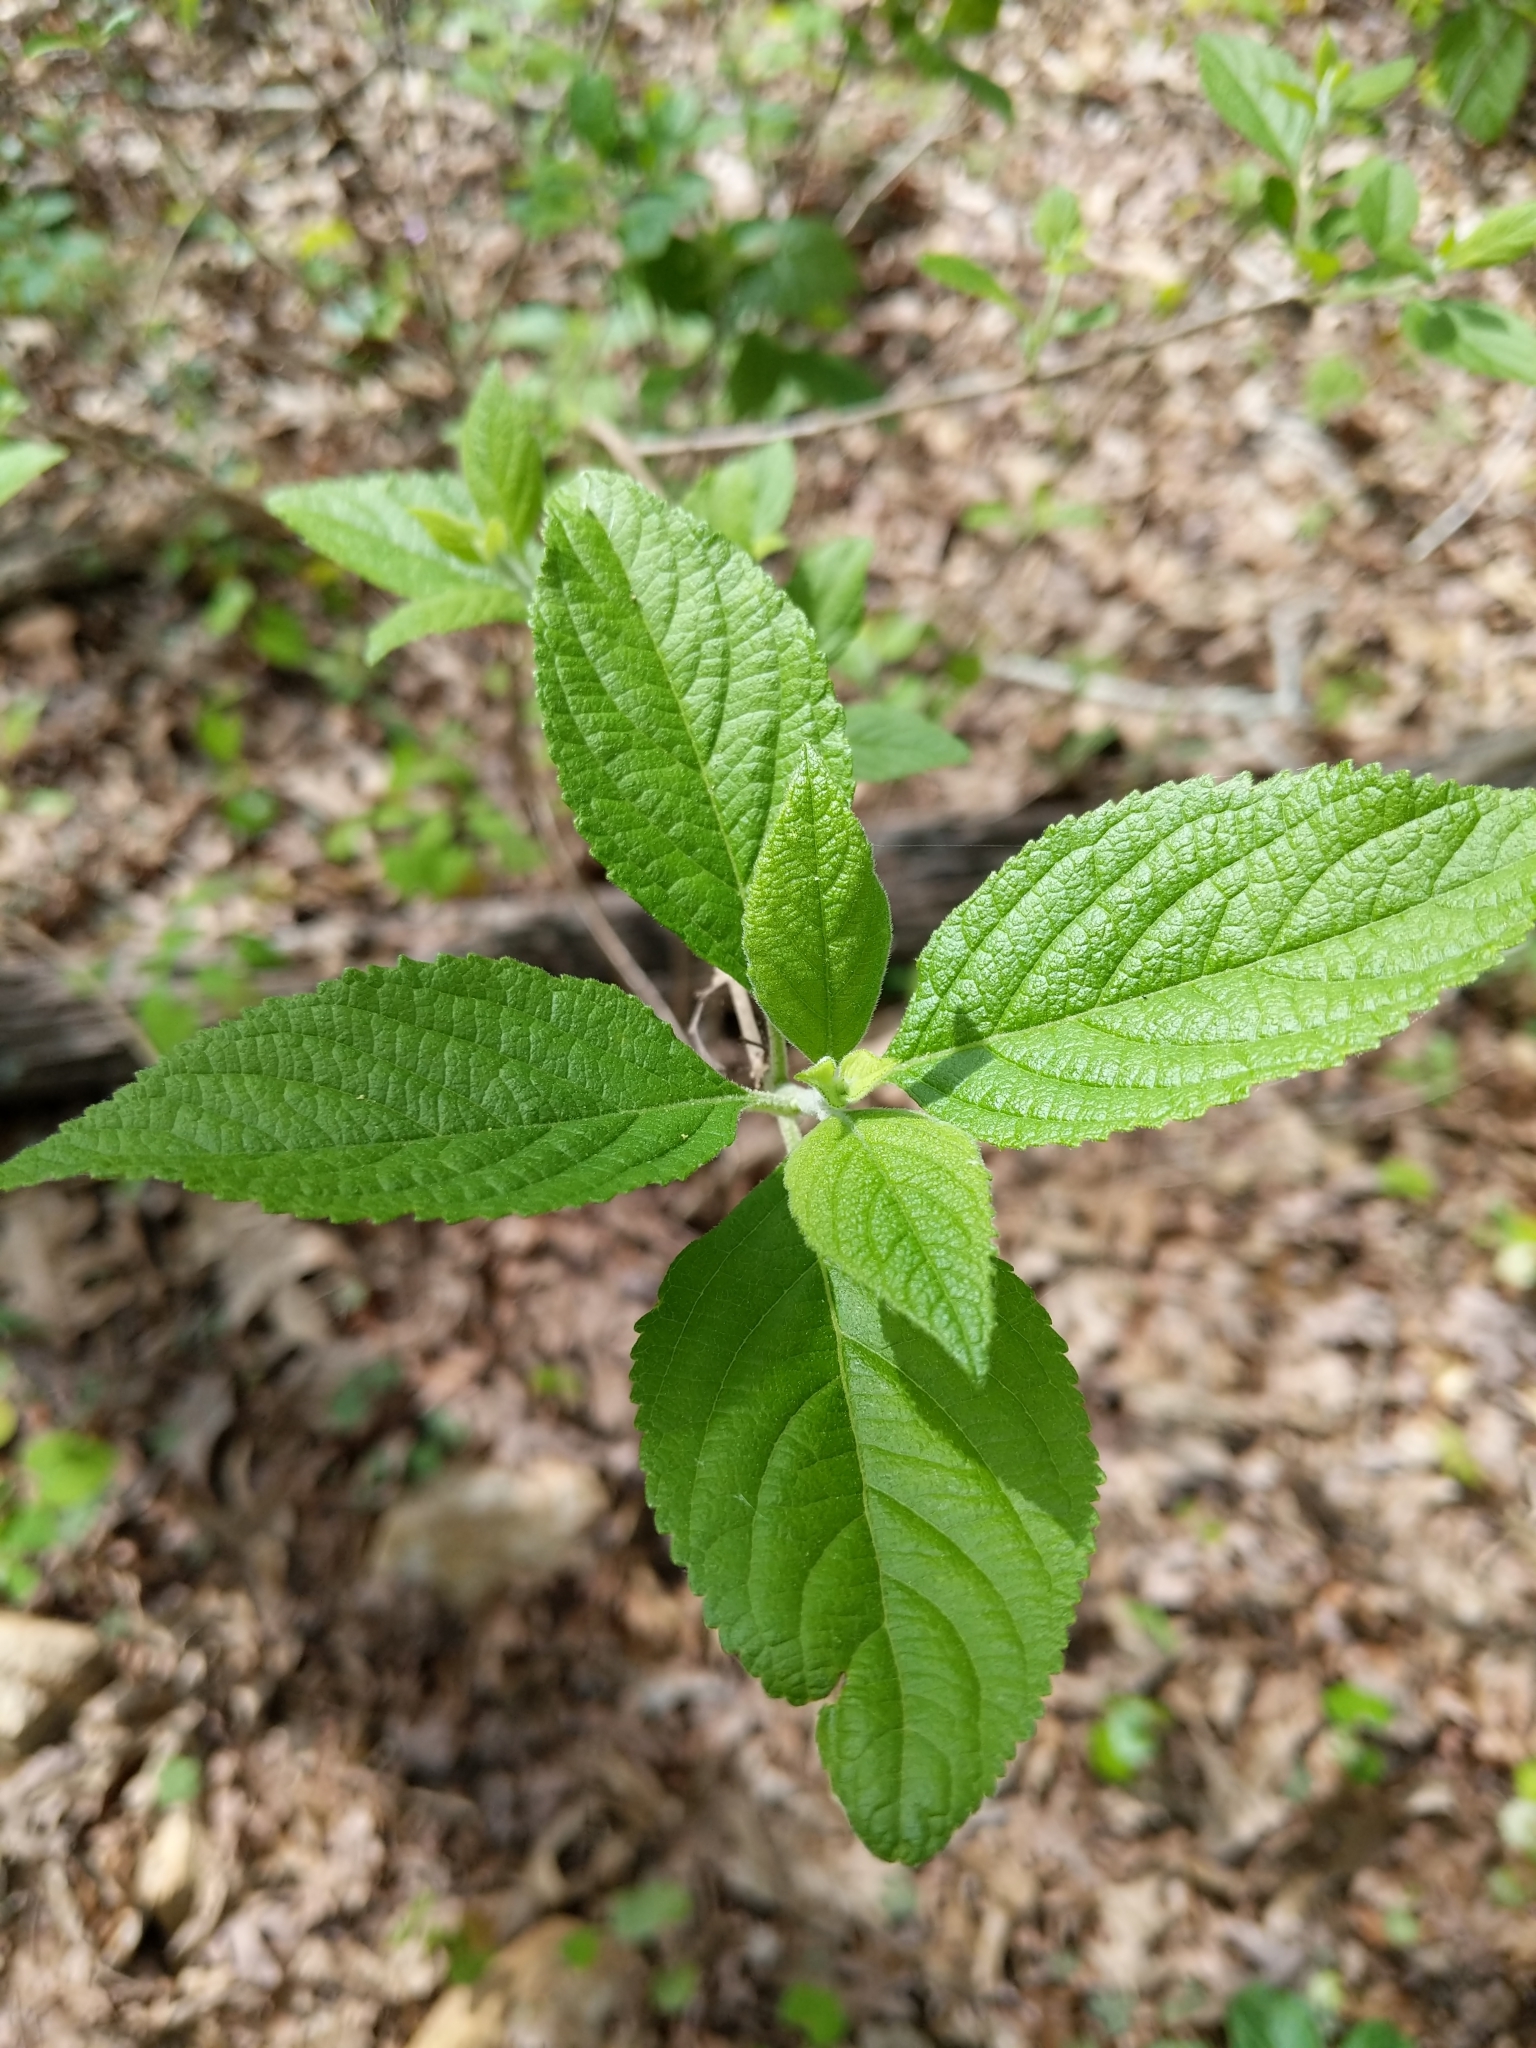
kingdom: Plantae
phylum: Tracheophyta
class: Magnoliopsida
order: Lamiales
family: Lamiaceae
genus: Callicarpa
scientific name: Callicarpa americana
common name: American beautyberry
